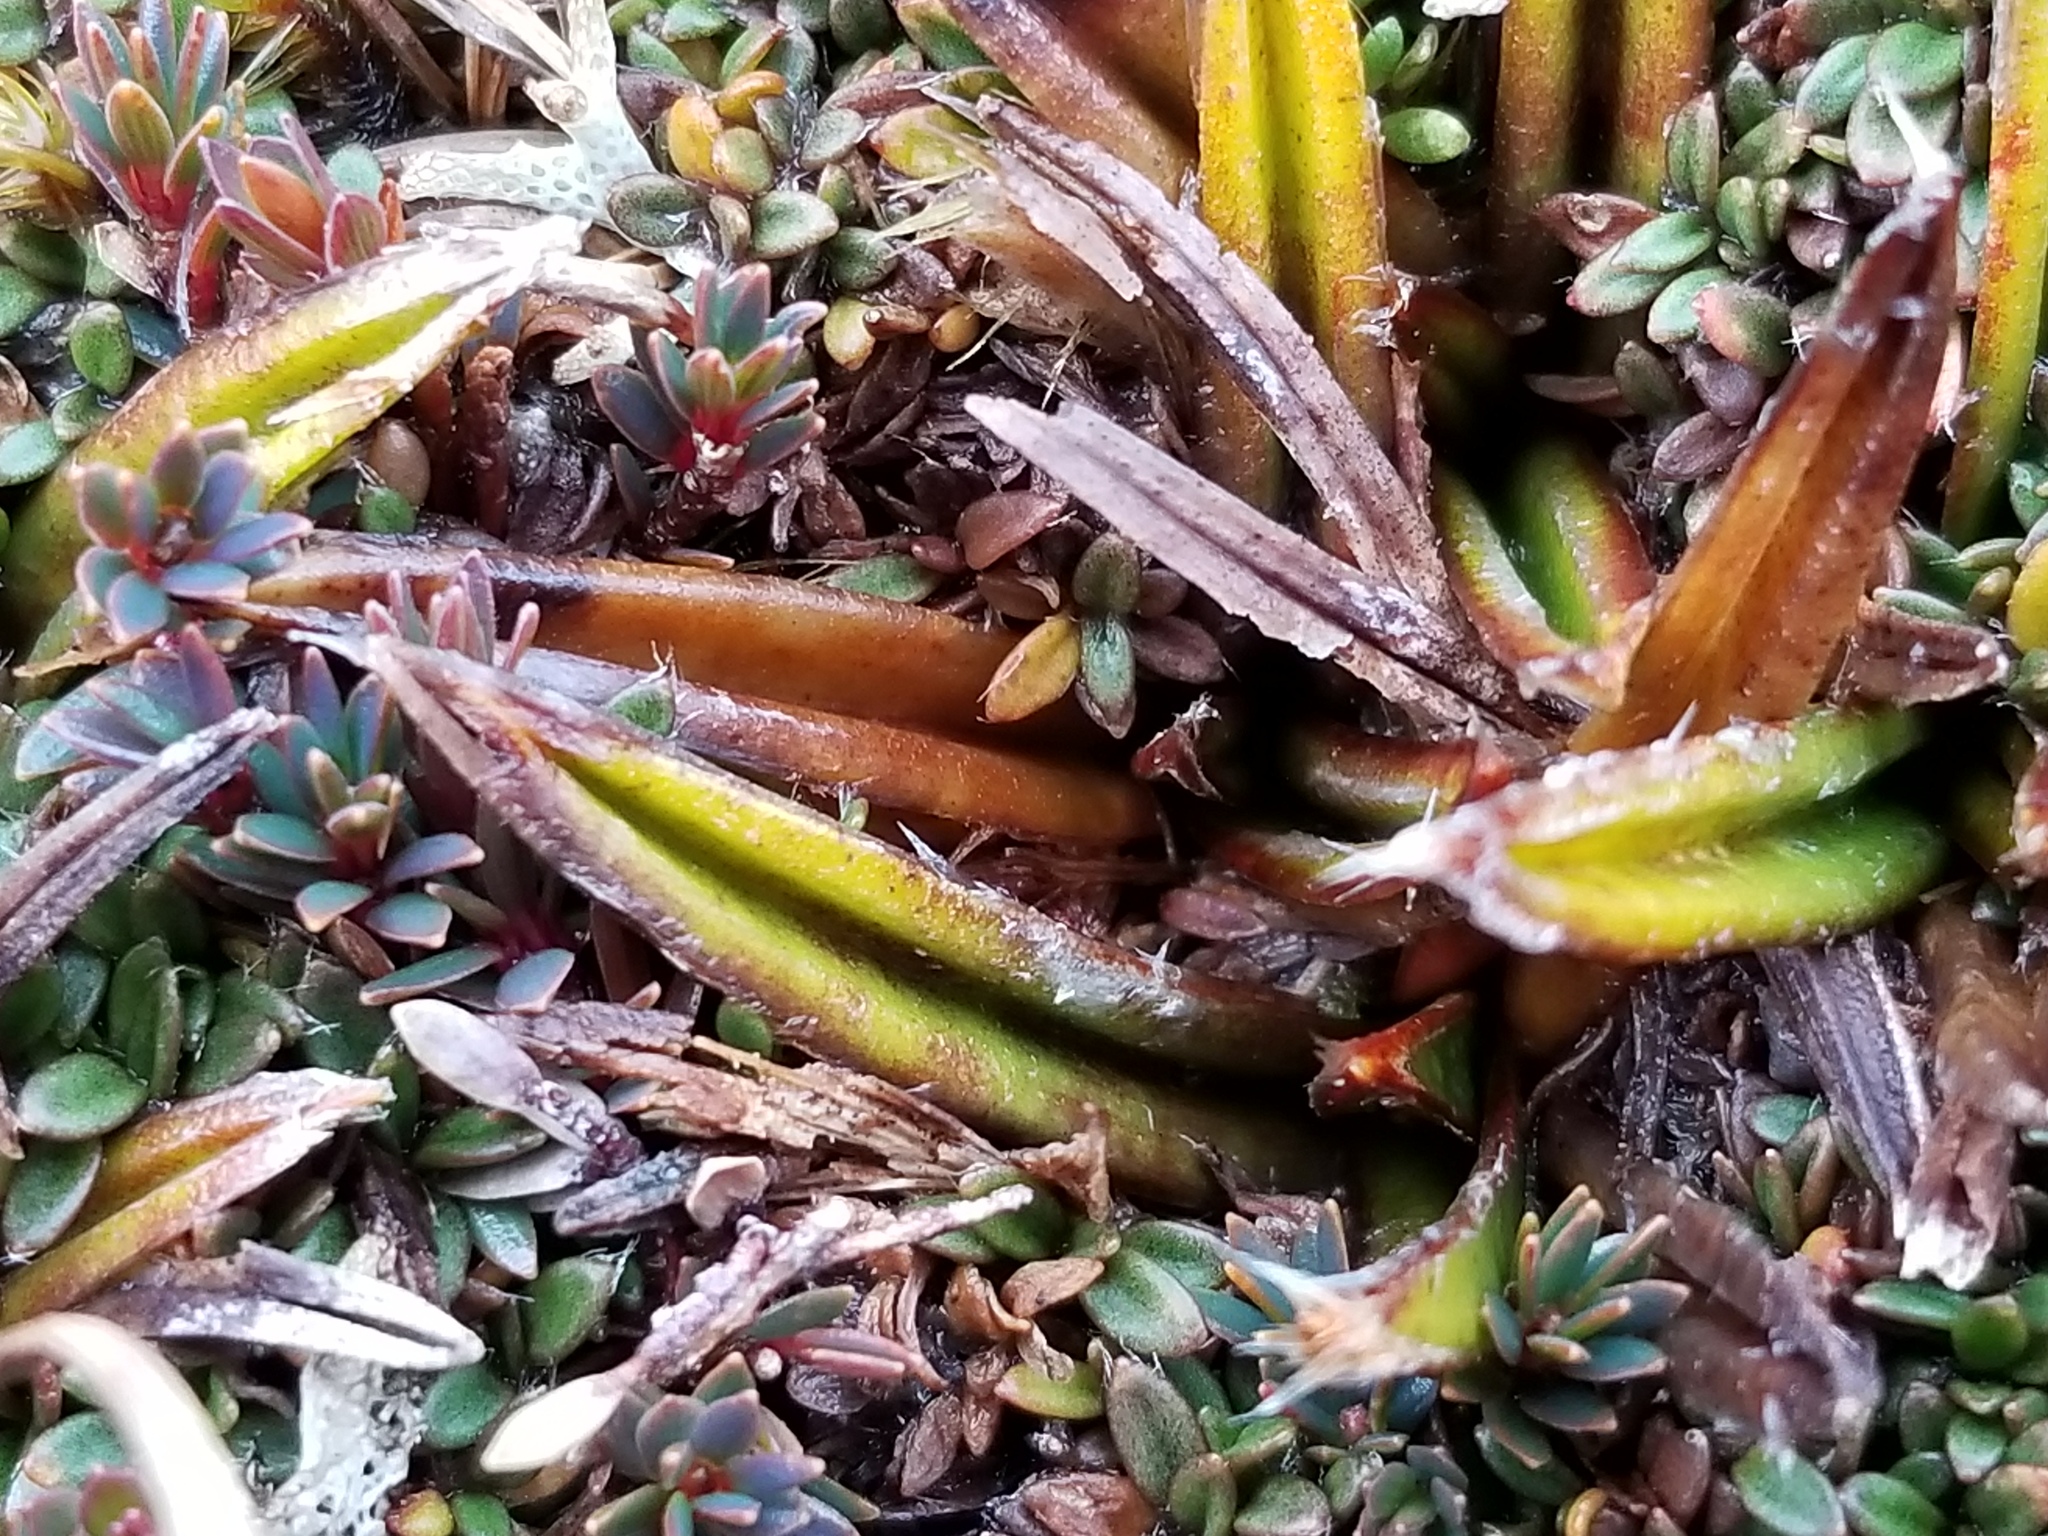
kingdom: Plantae
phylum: Tracheophyta
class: Liliopsida
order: Asparagales
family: Asteliaceae
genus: Astelia
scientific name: Astelia linearis
